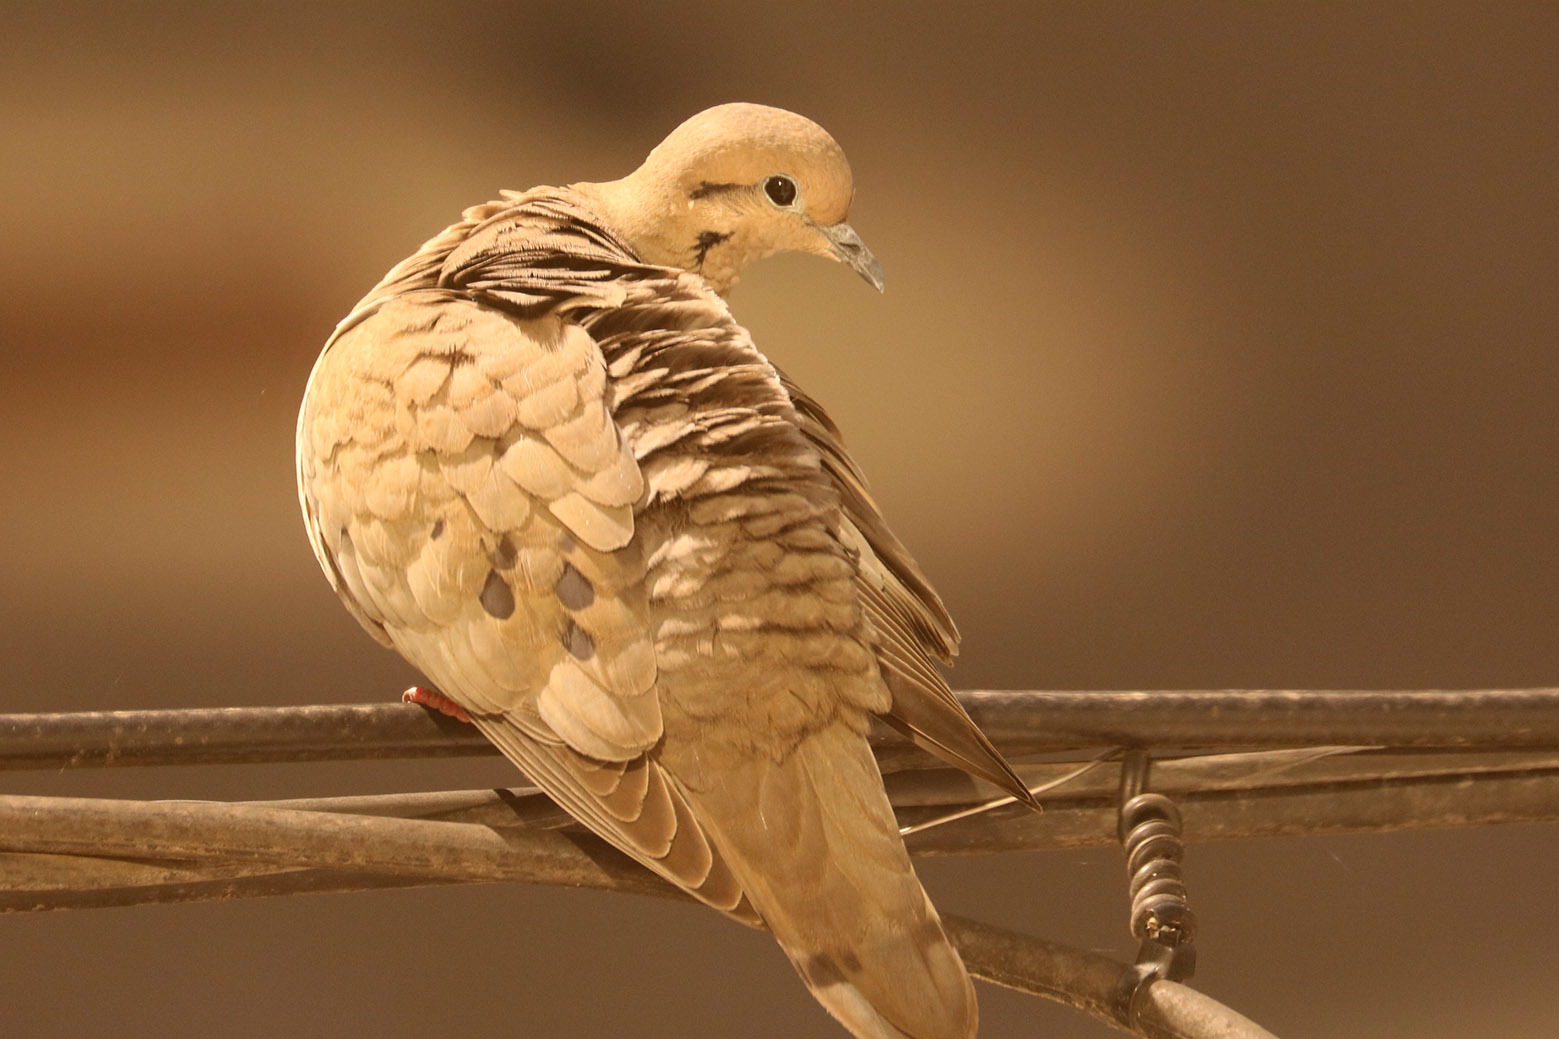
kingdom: Animalia
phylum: Chordata
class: Aves
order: Columbiformes
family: Columbidae
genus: Zenaida
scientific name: Zenaida auriculata
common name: Eared dove
